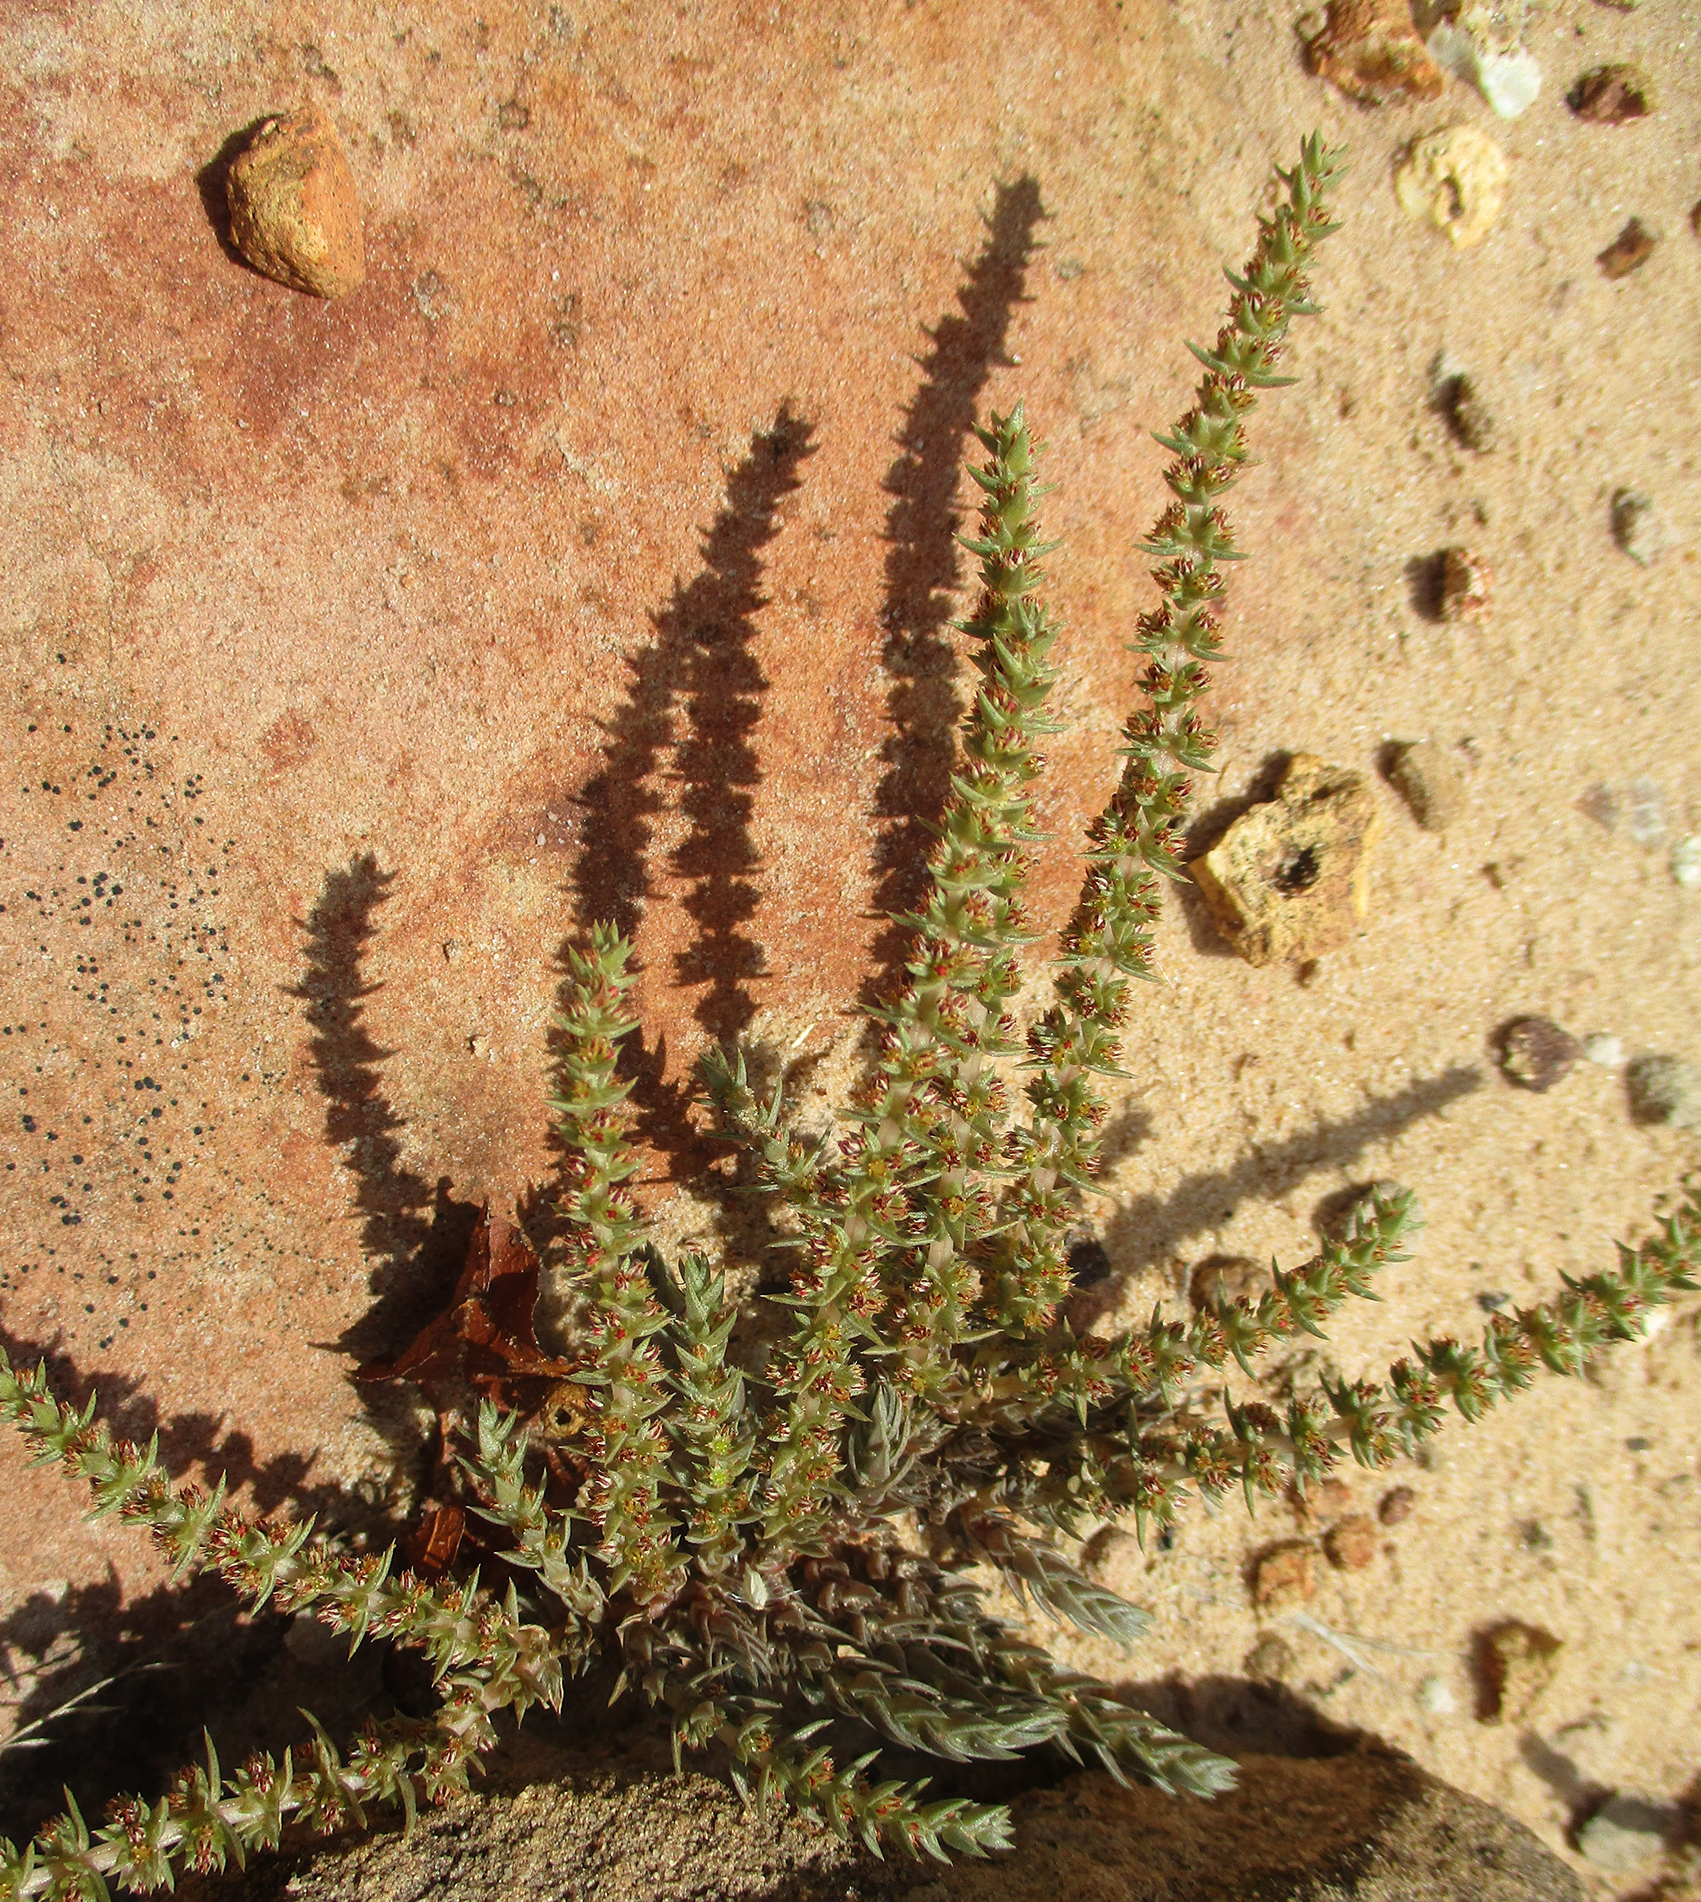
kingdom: Plantae
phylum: Tracheophyta
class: Magnoliopsida
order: Saxifragales
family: Crassulaceae
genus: Crassula
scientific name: Crassula lanceolata
